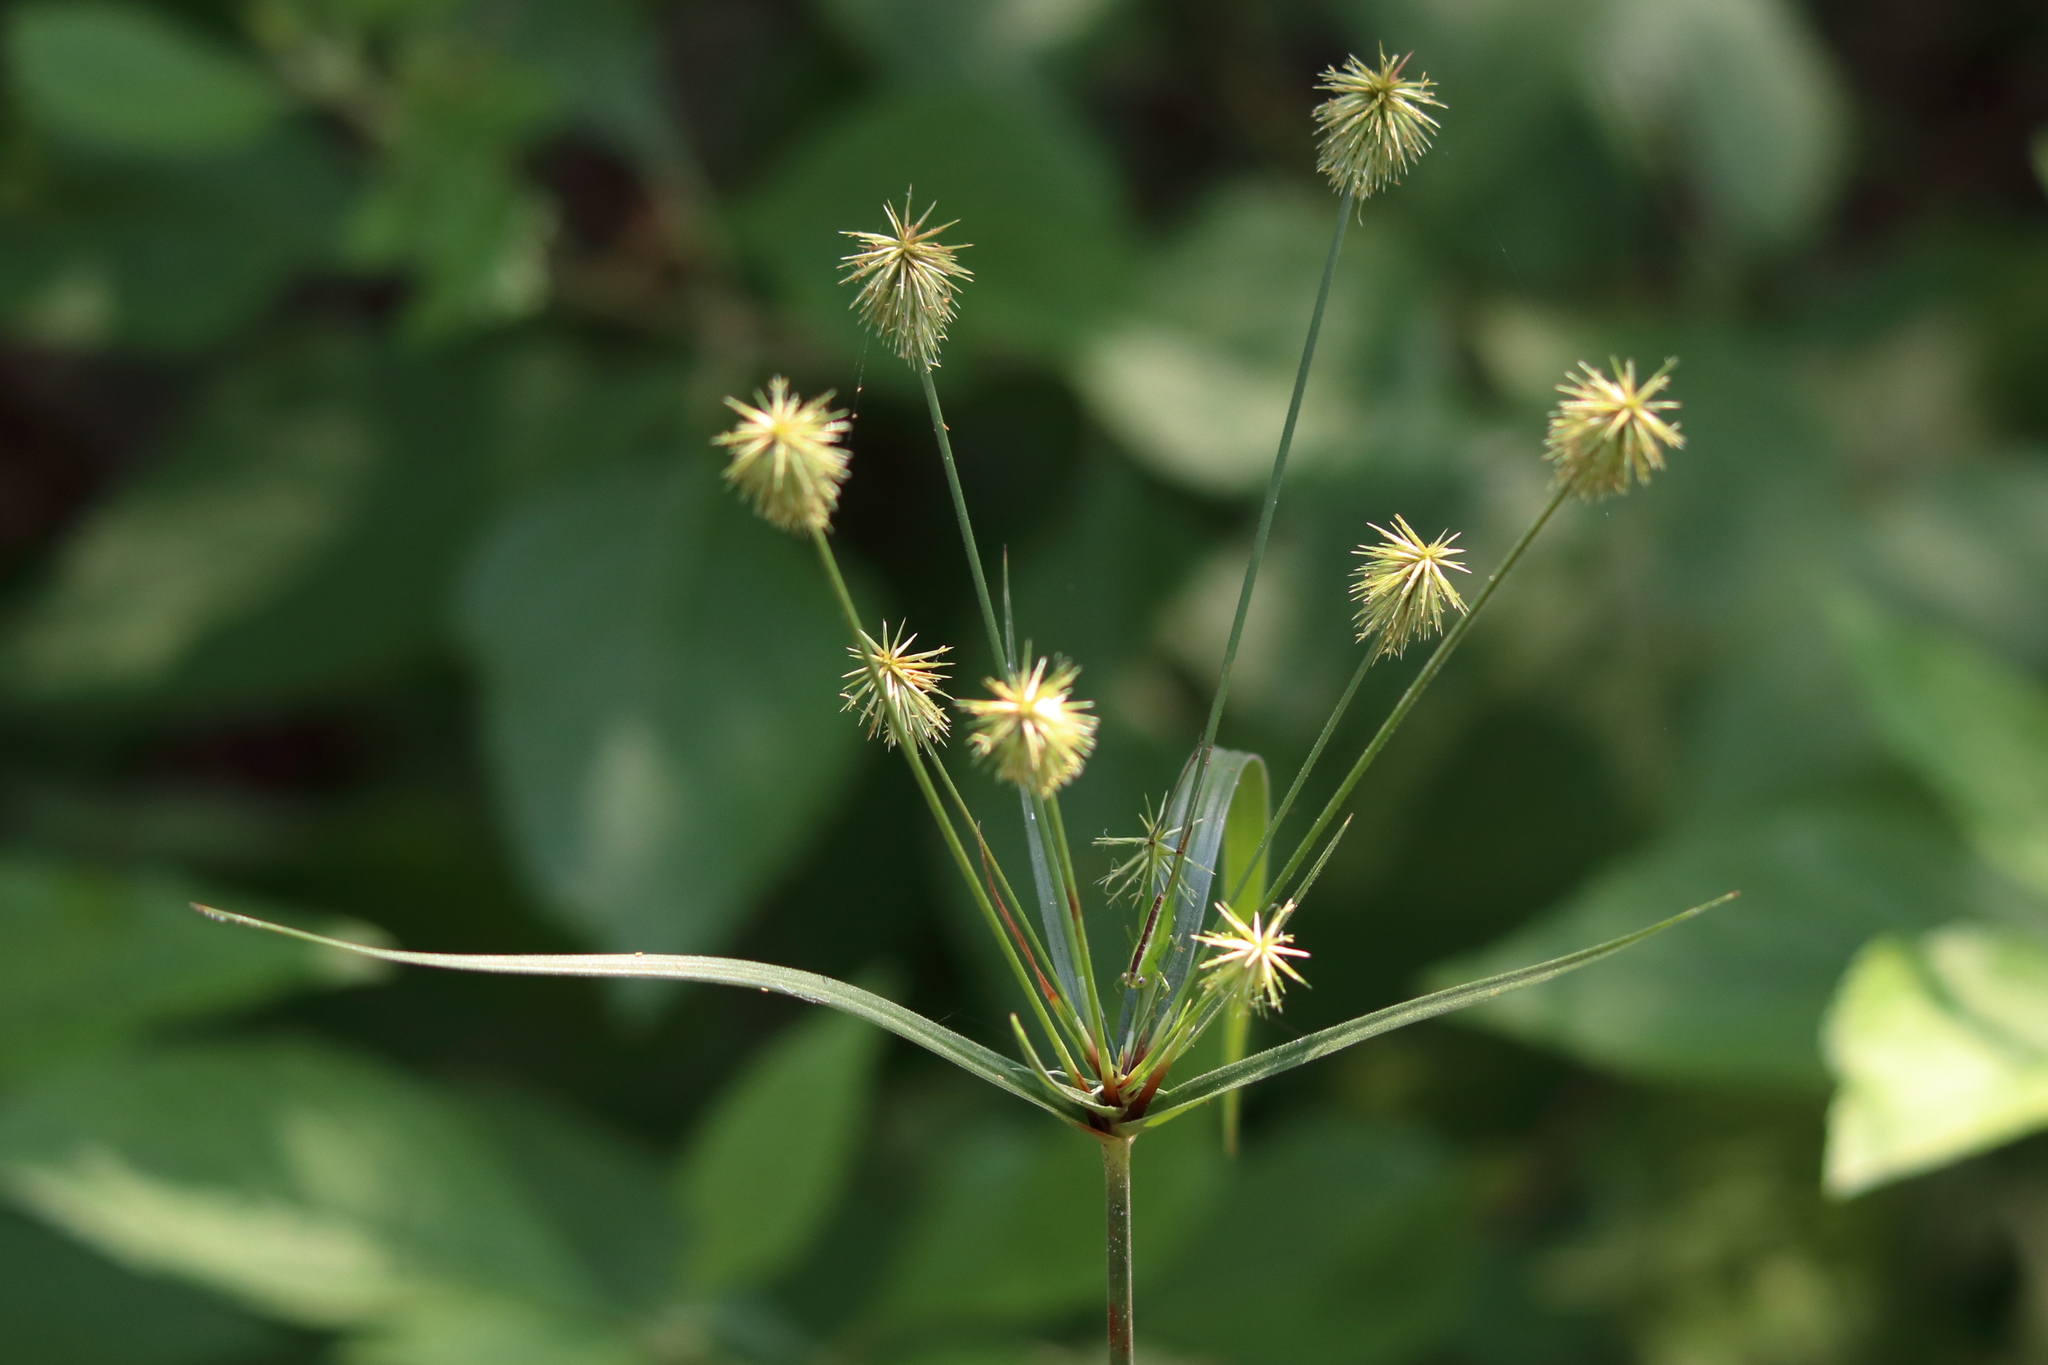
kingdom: Plantae
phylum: Tracheophyta
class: Liliopsida
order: Poales
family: Cyperaceae
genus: Cyperus
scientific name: Cyperus plukenetii
